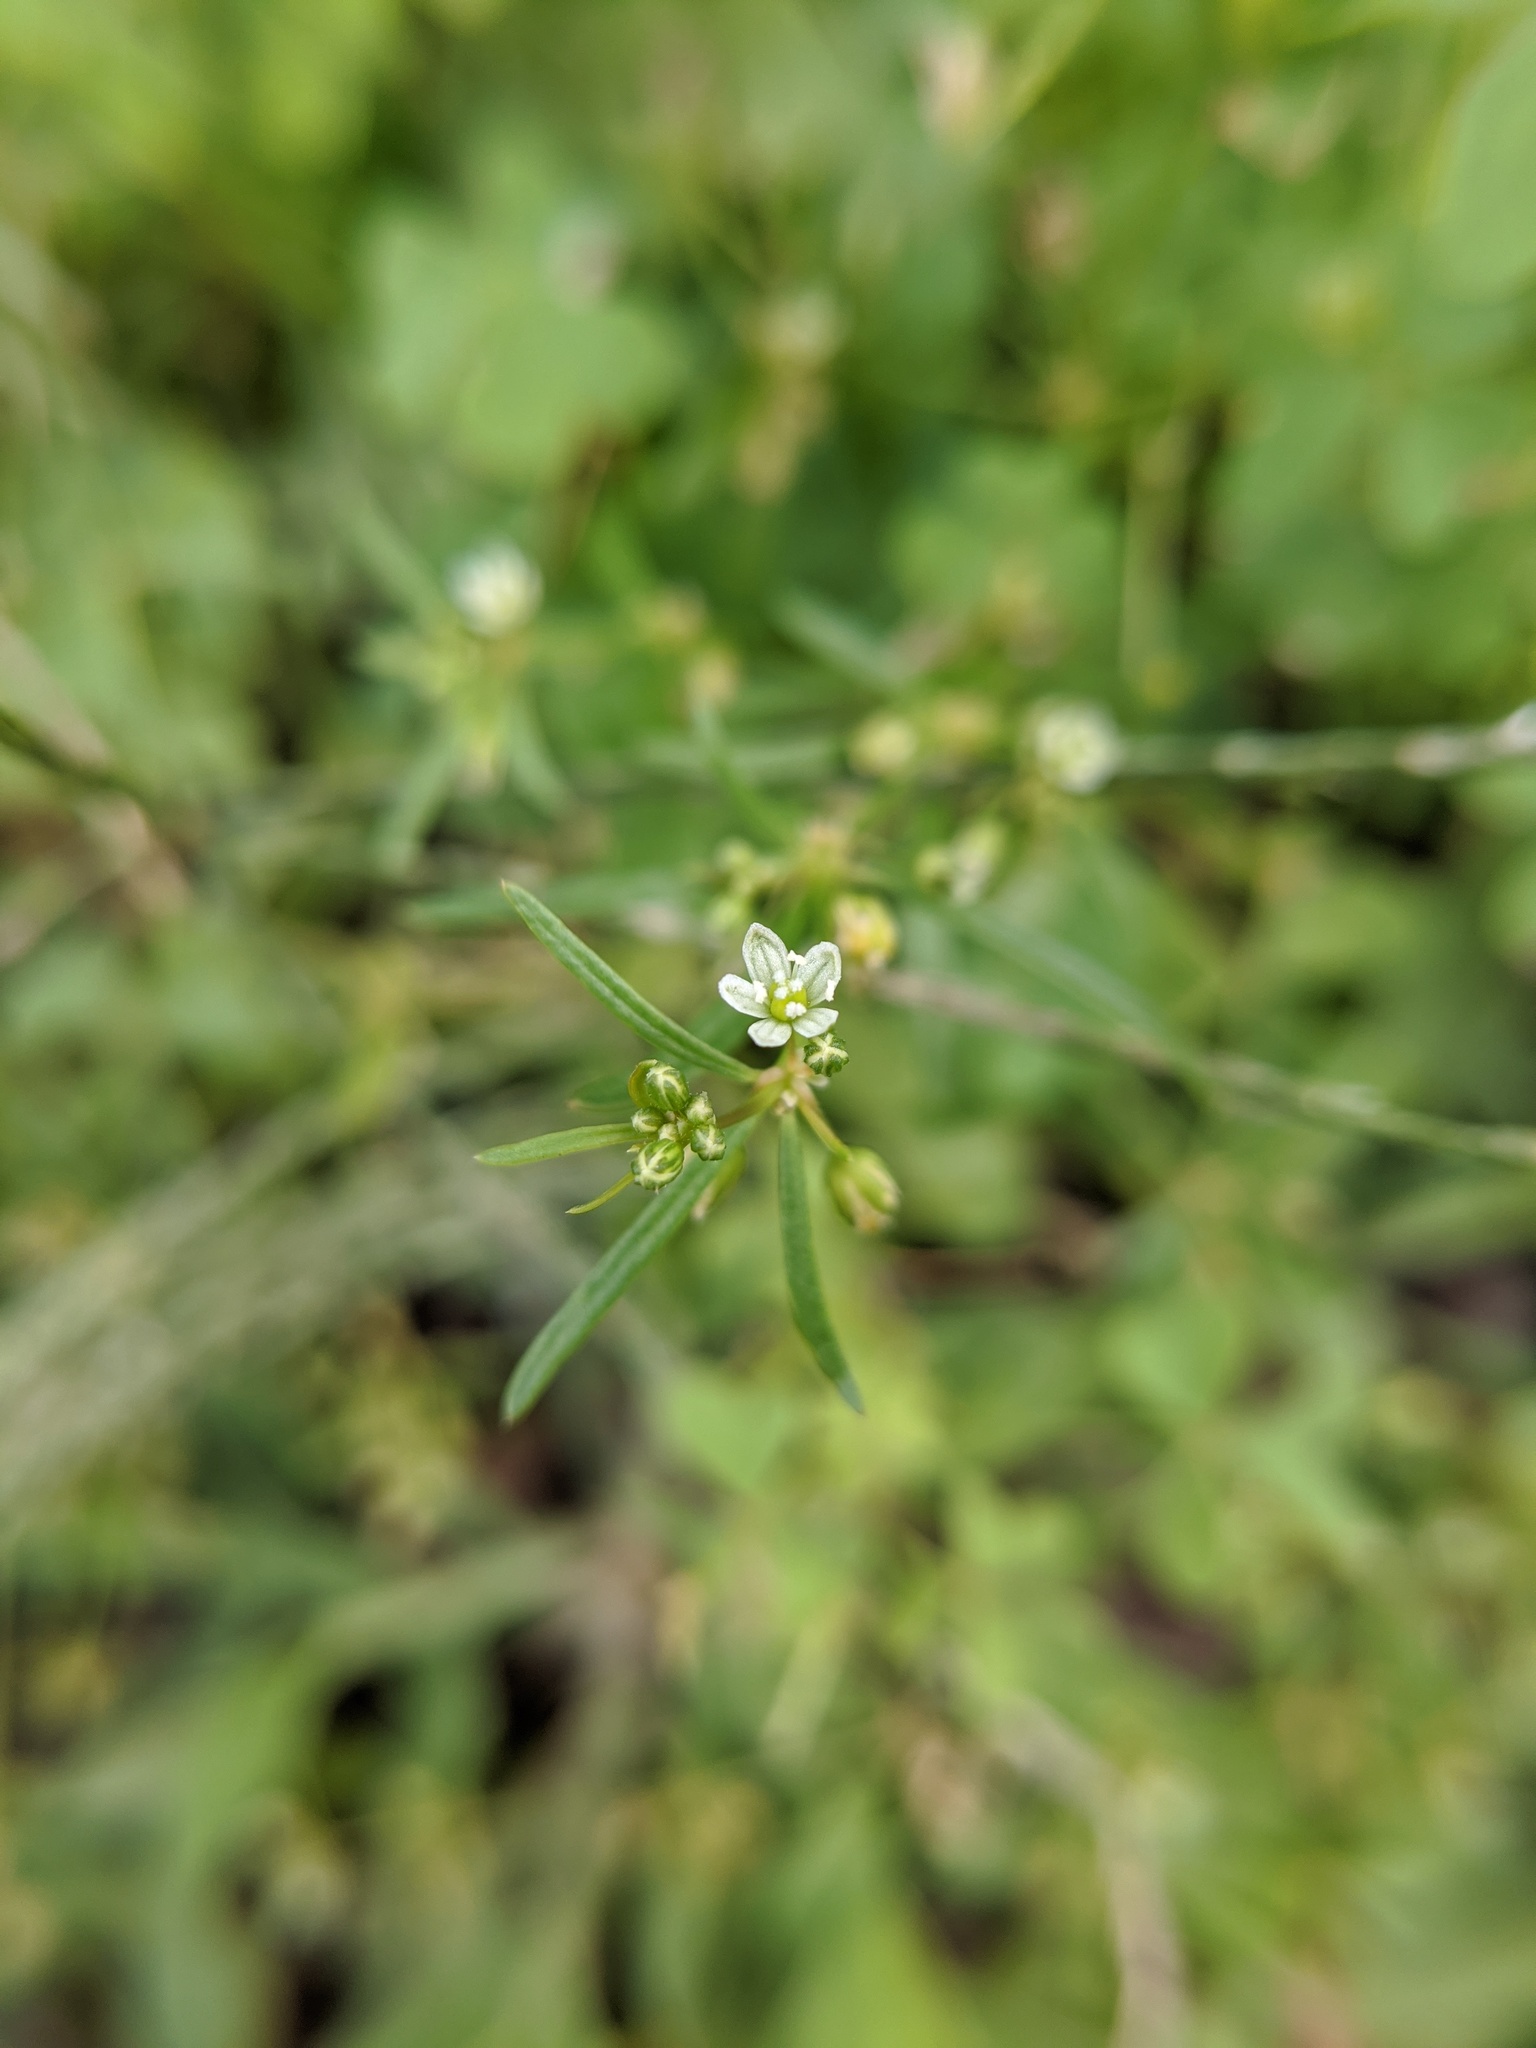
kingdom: Plantae
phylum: Tracheophyta
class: Magnoliopsida
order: Caryophyllales
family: Molluginaceae
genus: Mollugo
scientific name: Mollugo verticillata
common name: Green carpetweed
